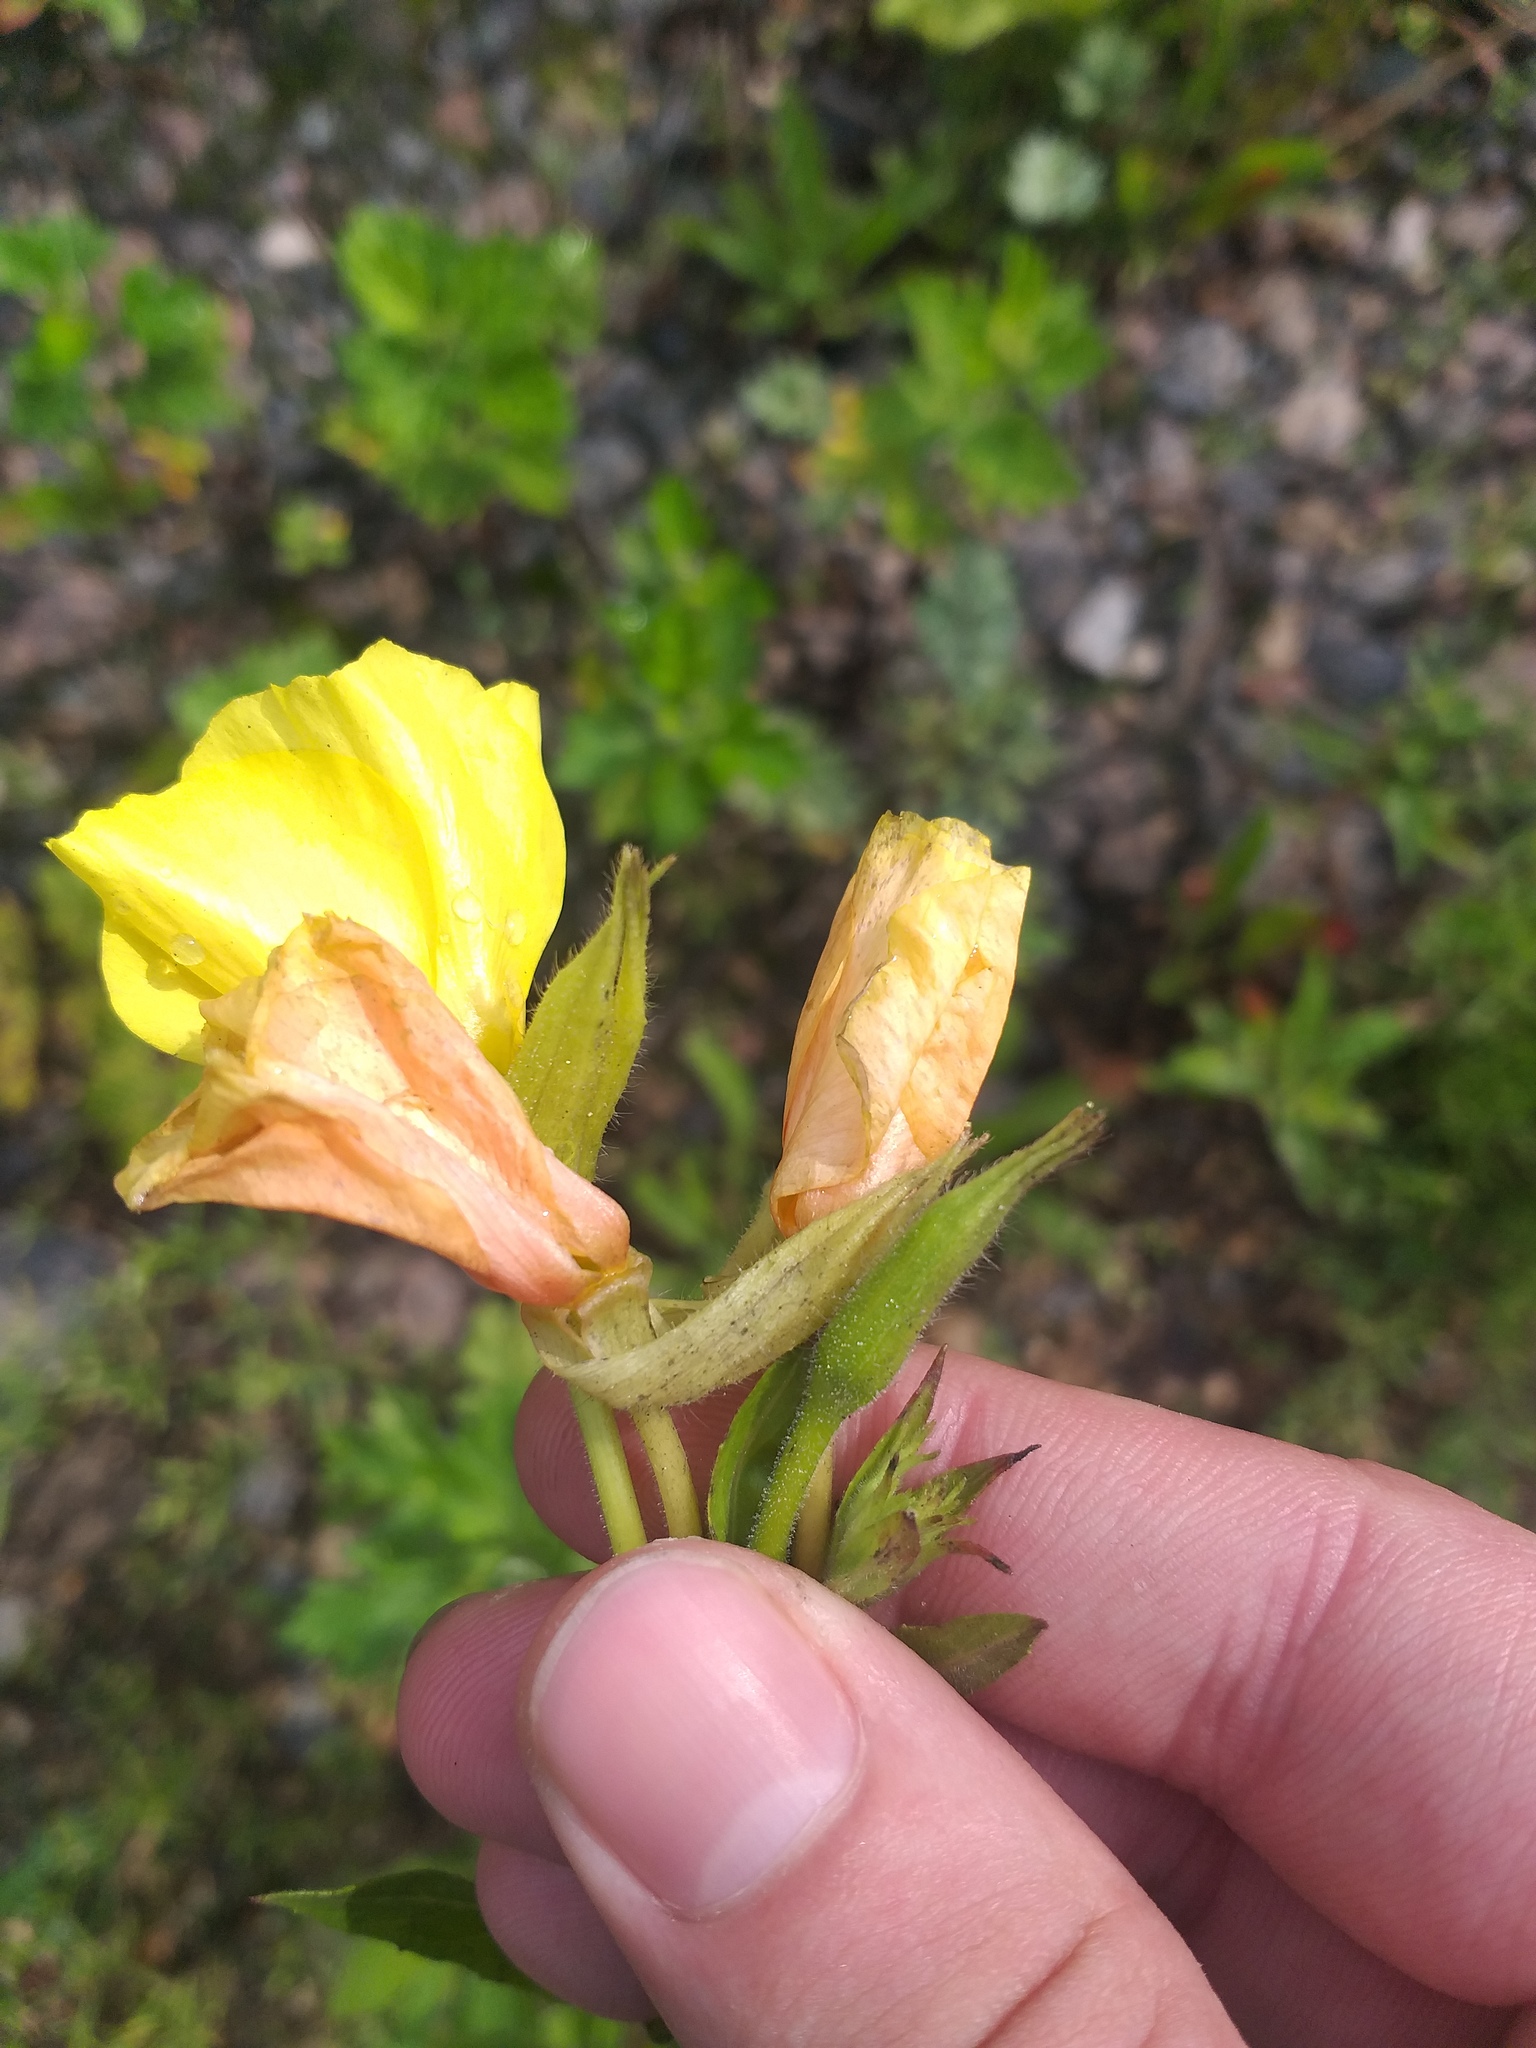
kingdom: Plantae
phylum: Tracheophyta
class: Magnoliopsida
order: Myrtales
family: Onagraceae
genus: Oenothera
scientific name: Oenothera biennis
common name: Common evening-primrose
